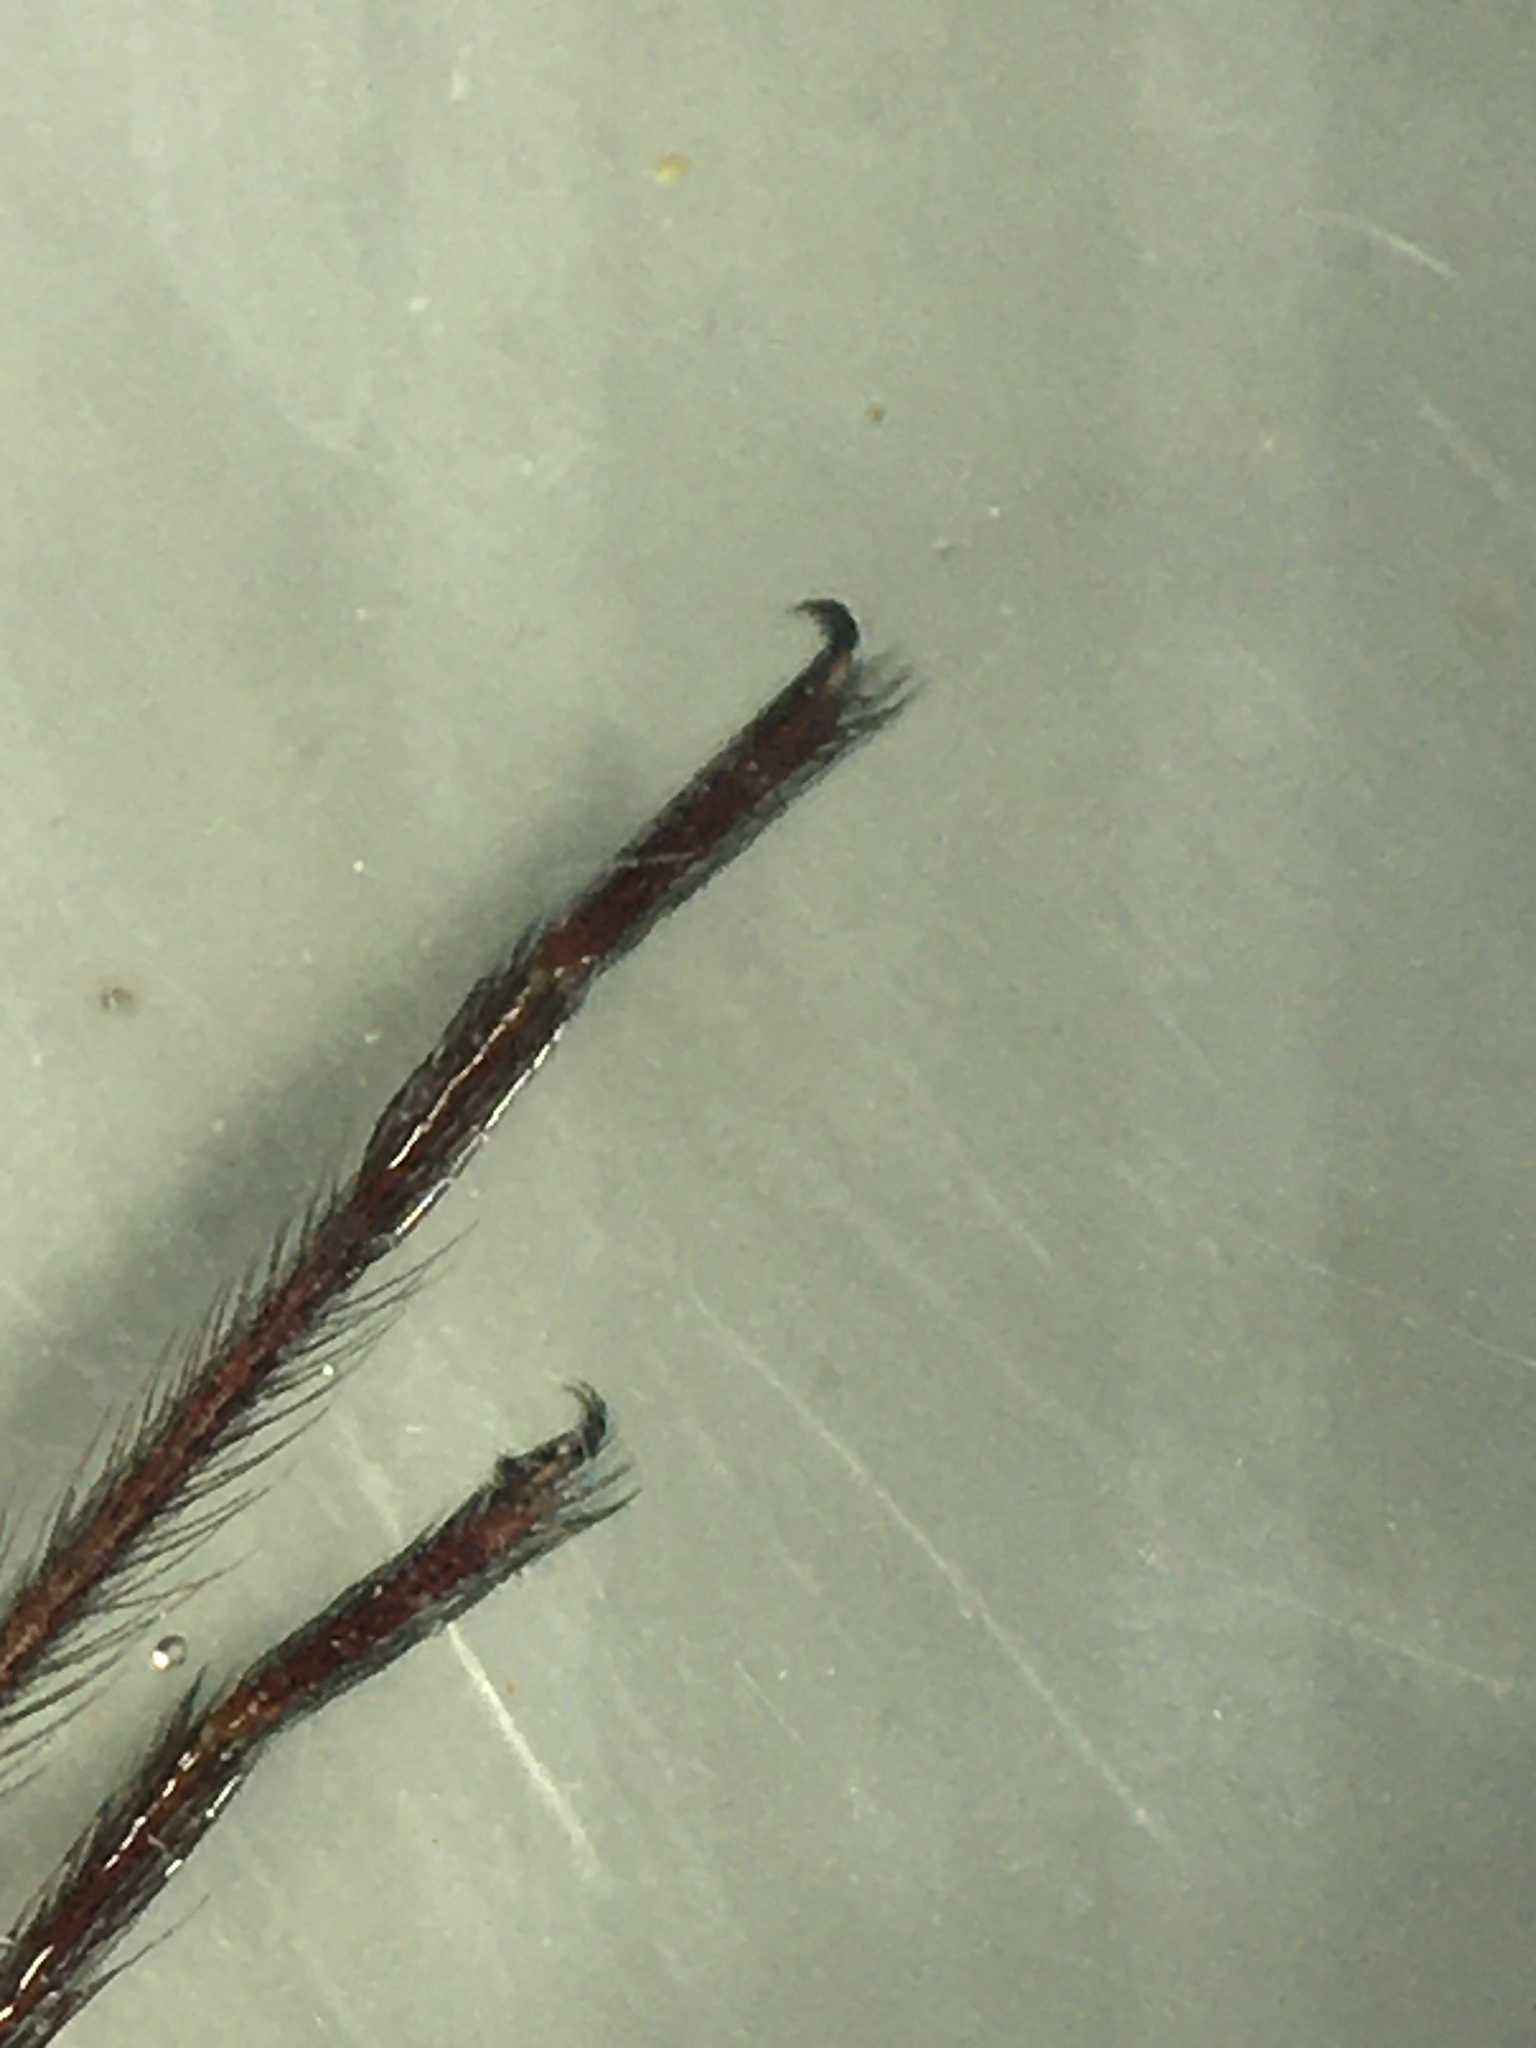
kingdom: Animalia
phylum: Arthropoda
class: Arachnida
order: Araneae
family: Sicariidae
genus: Loxosceles
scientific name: Loxosceles deserta
